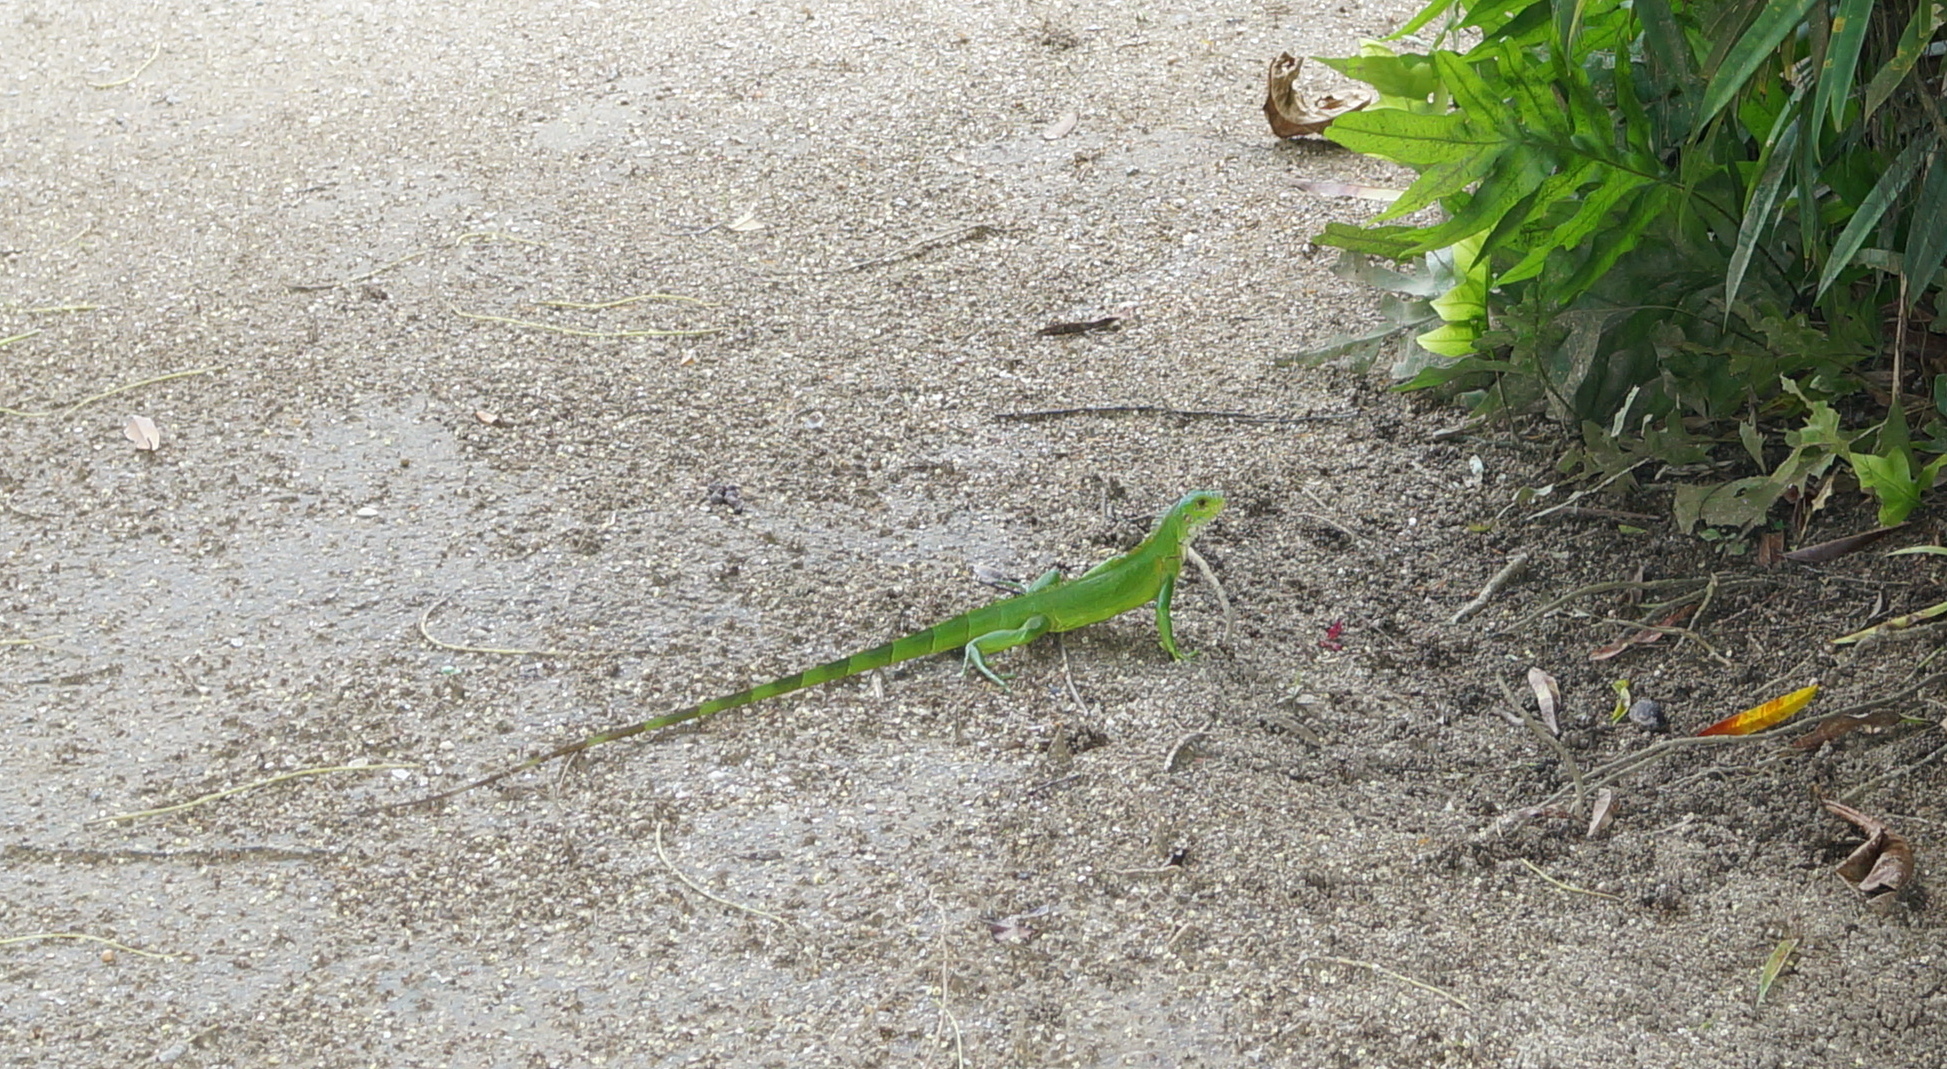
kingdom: Animalia
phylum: Chordata
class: Squamata
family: Iguanidae
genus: Iguana
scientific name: Iguana iguana
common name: Green iguana
